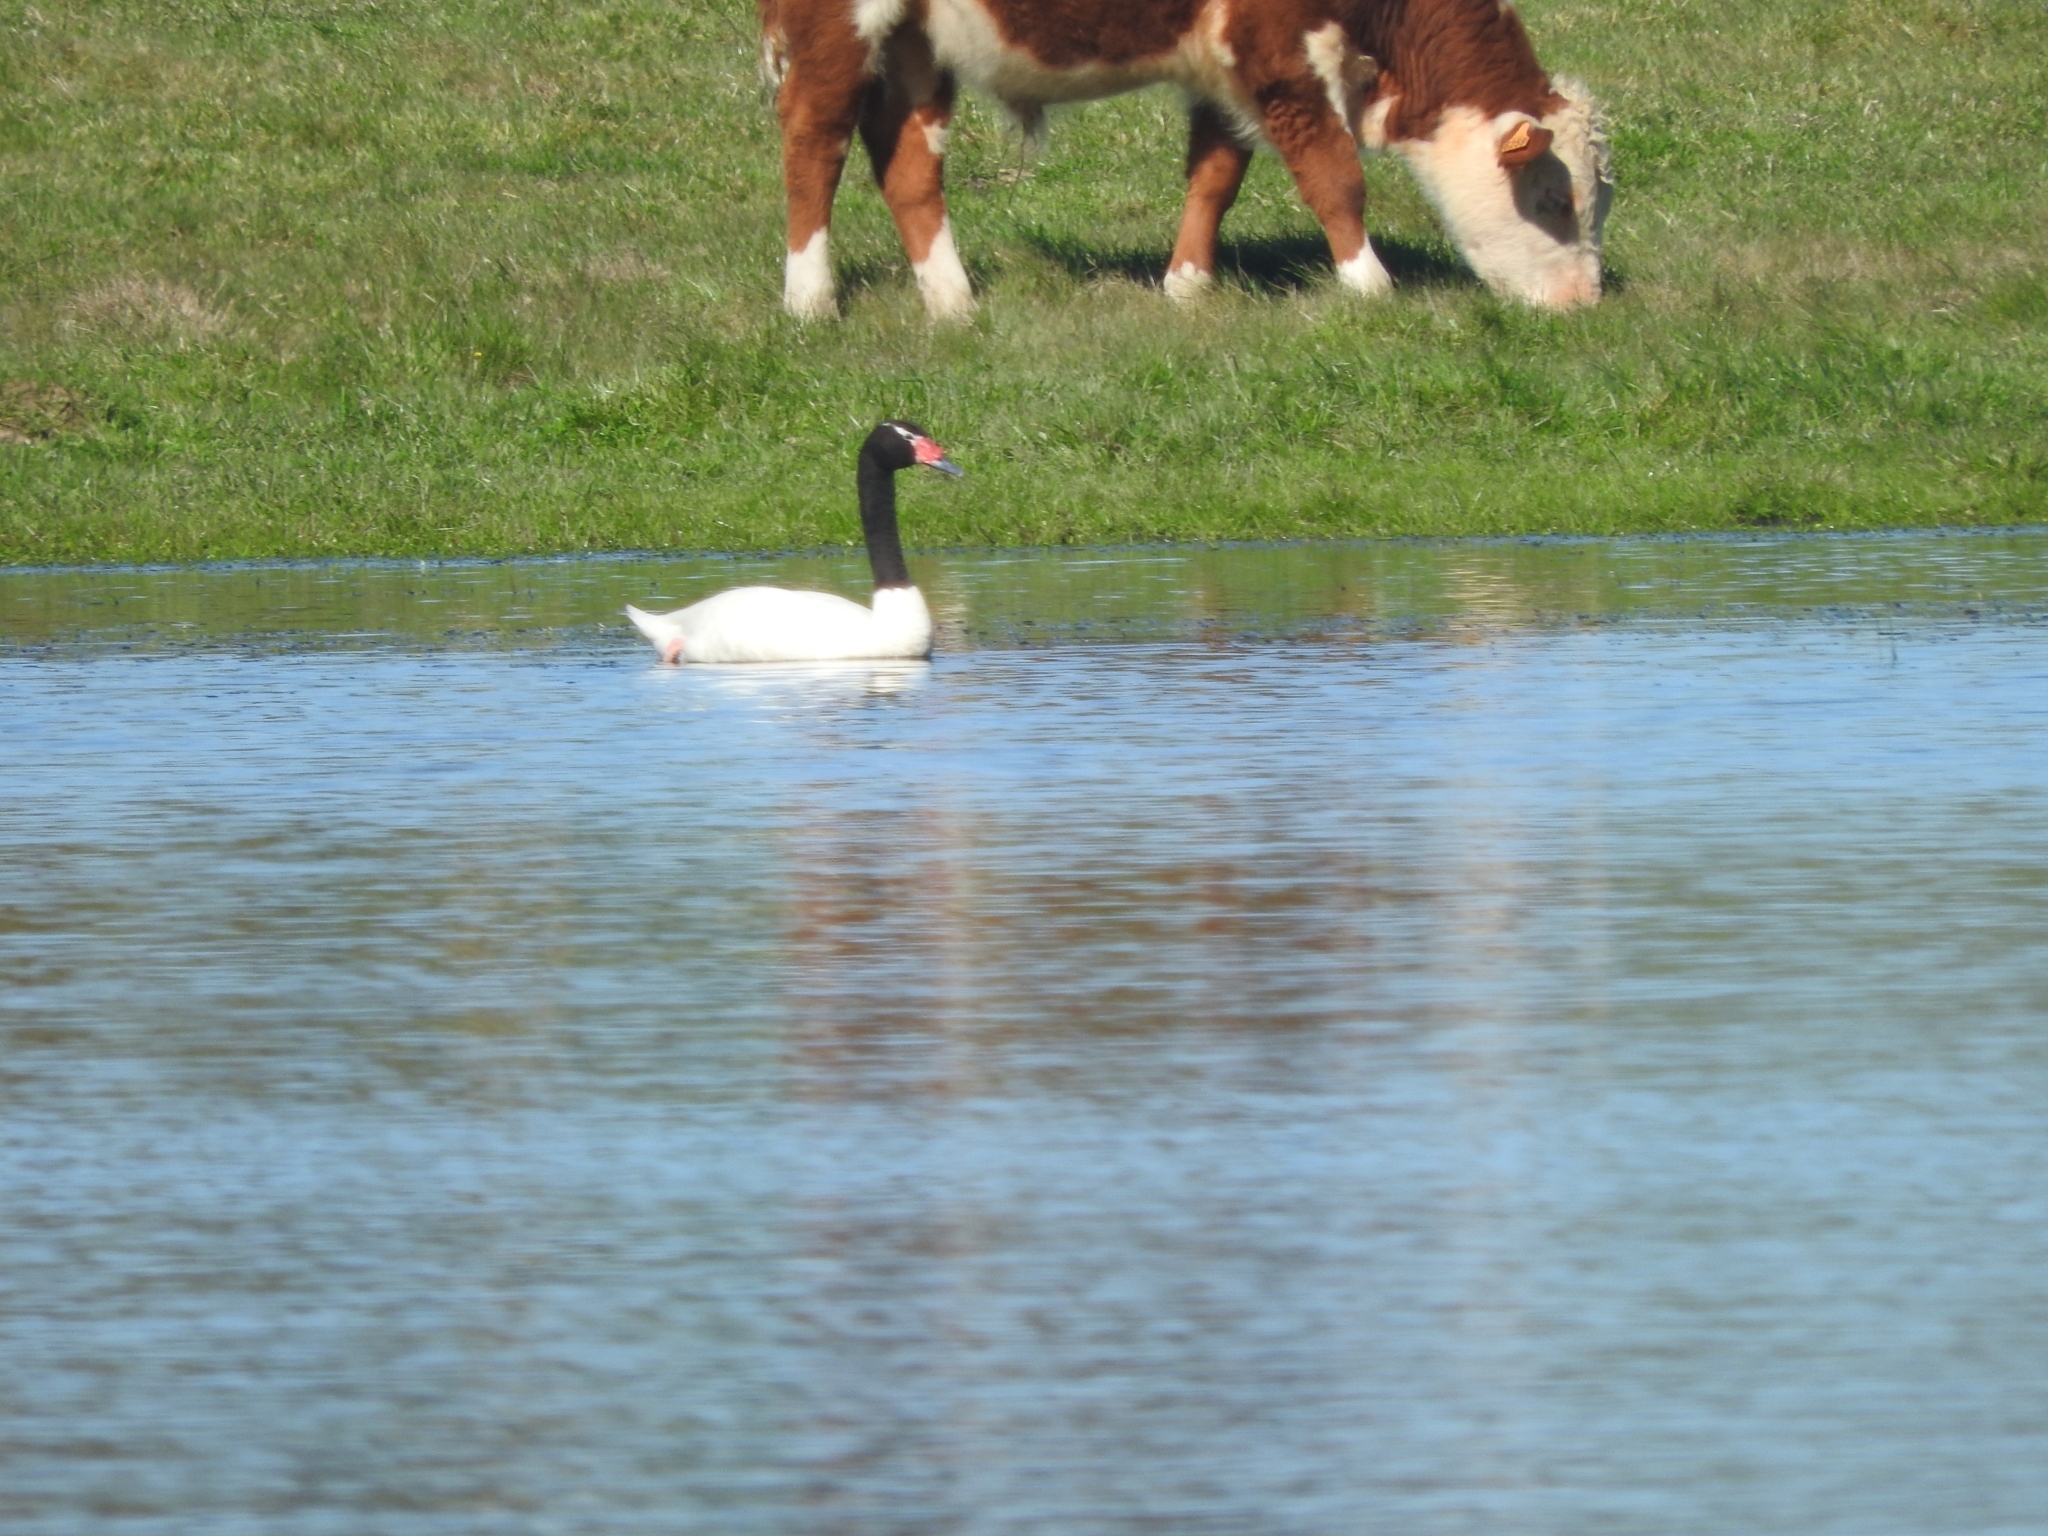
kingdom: Animalia
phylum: Chordata
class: Aves
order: Anseriformes
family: Anatidae
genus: Cygnus
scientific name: Cygnus melancoryphus
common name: Black-necked swan
